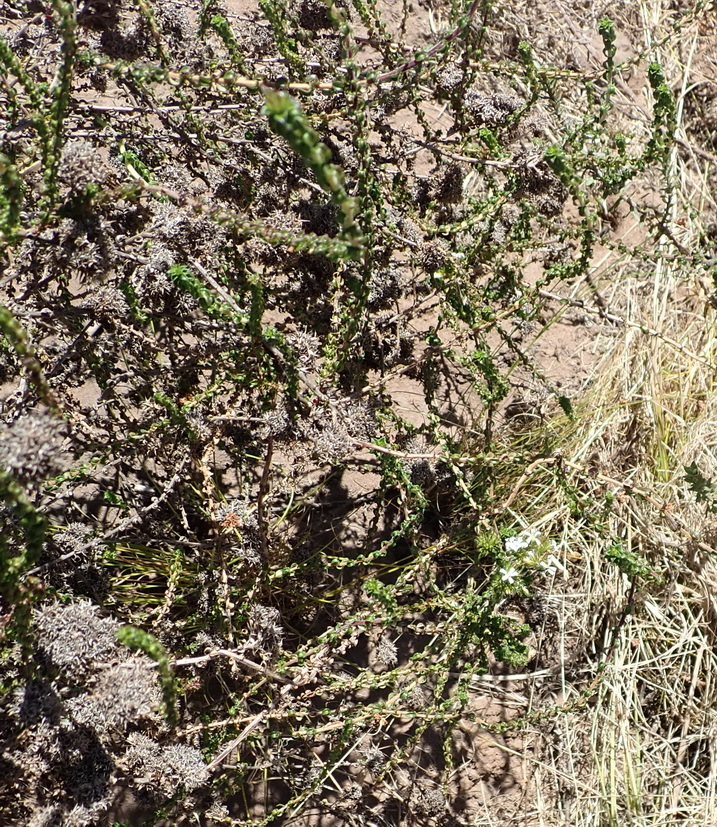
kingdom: Plantae
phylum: Tracheophyta
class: Magnoliopsida
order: Asterales
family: Campanulaceae
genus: Wahlenbergia
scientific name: Wahlenbergia desmantha
